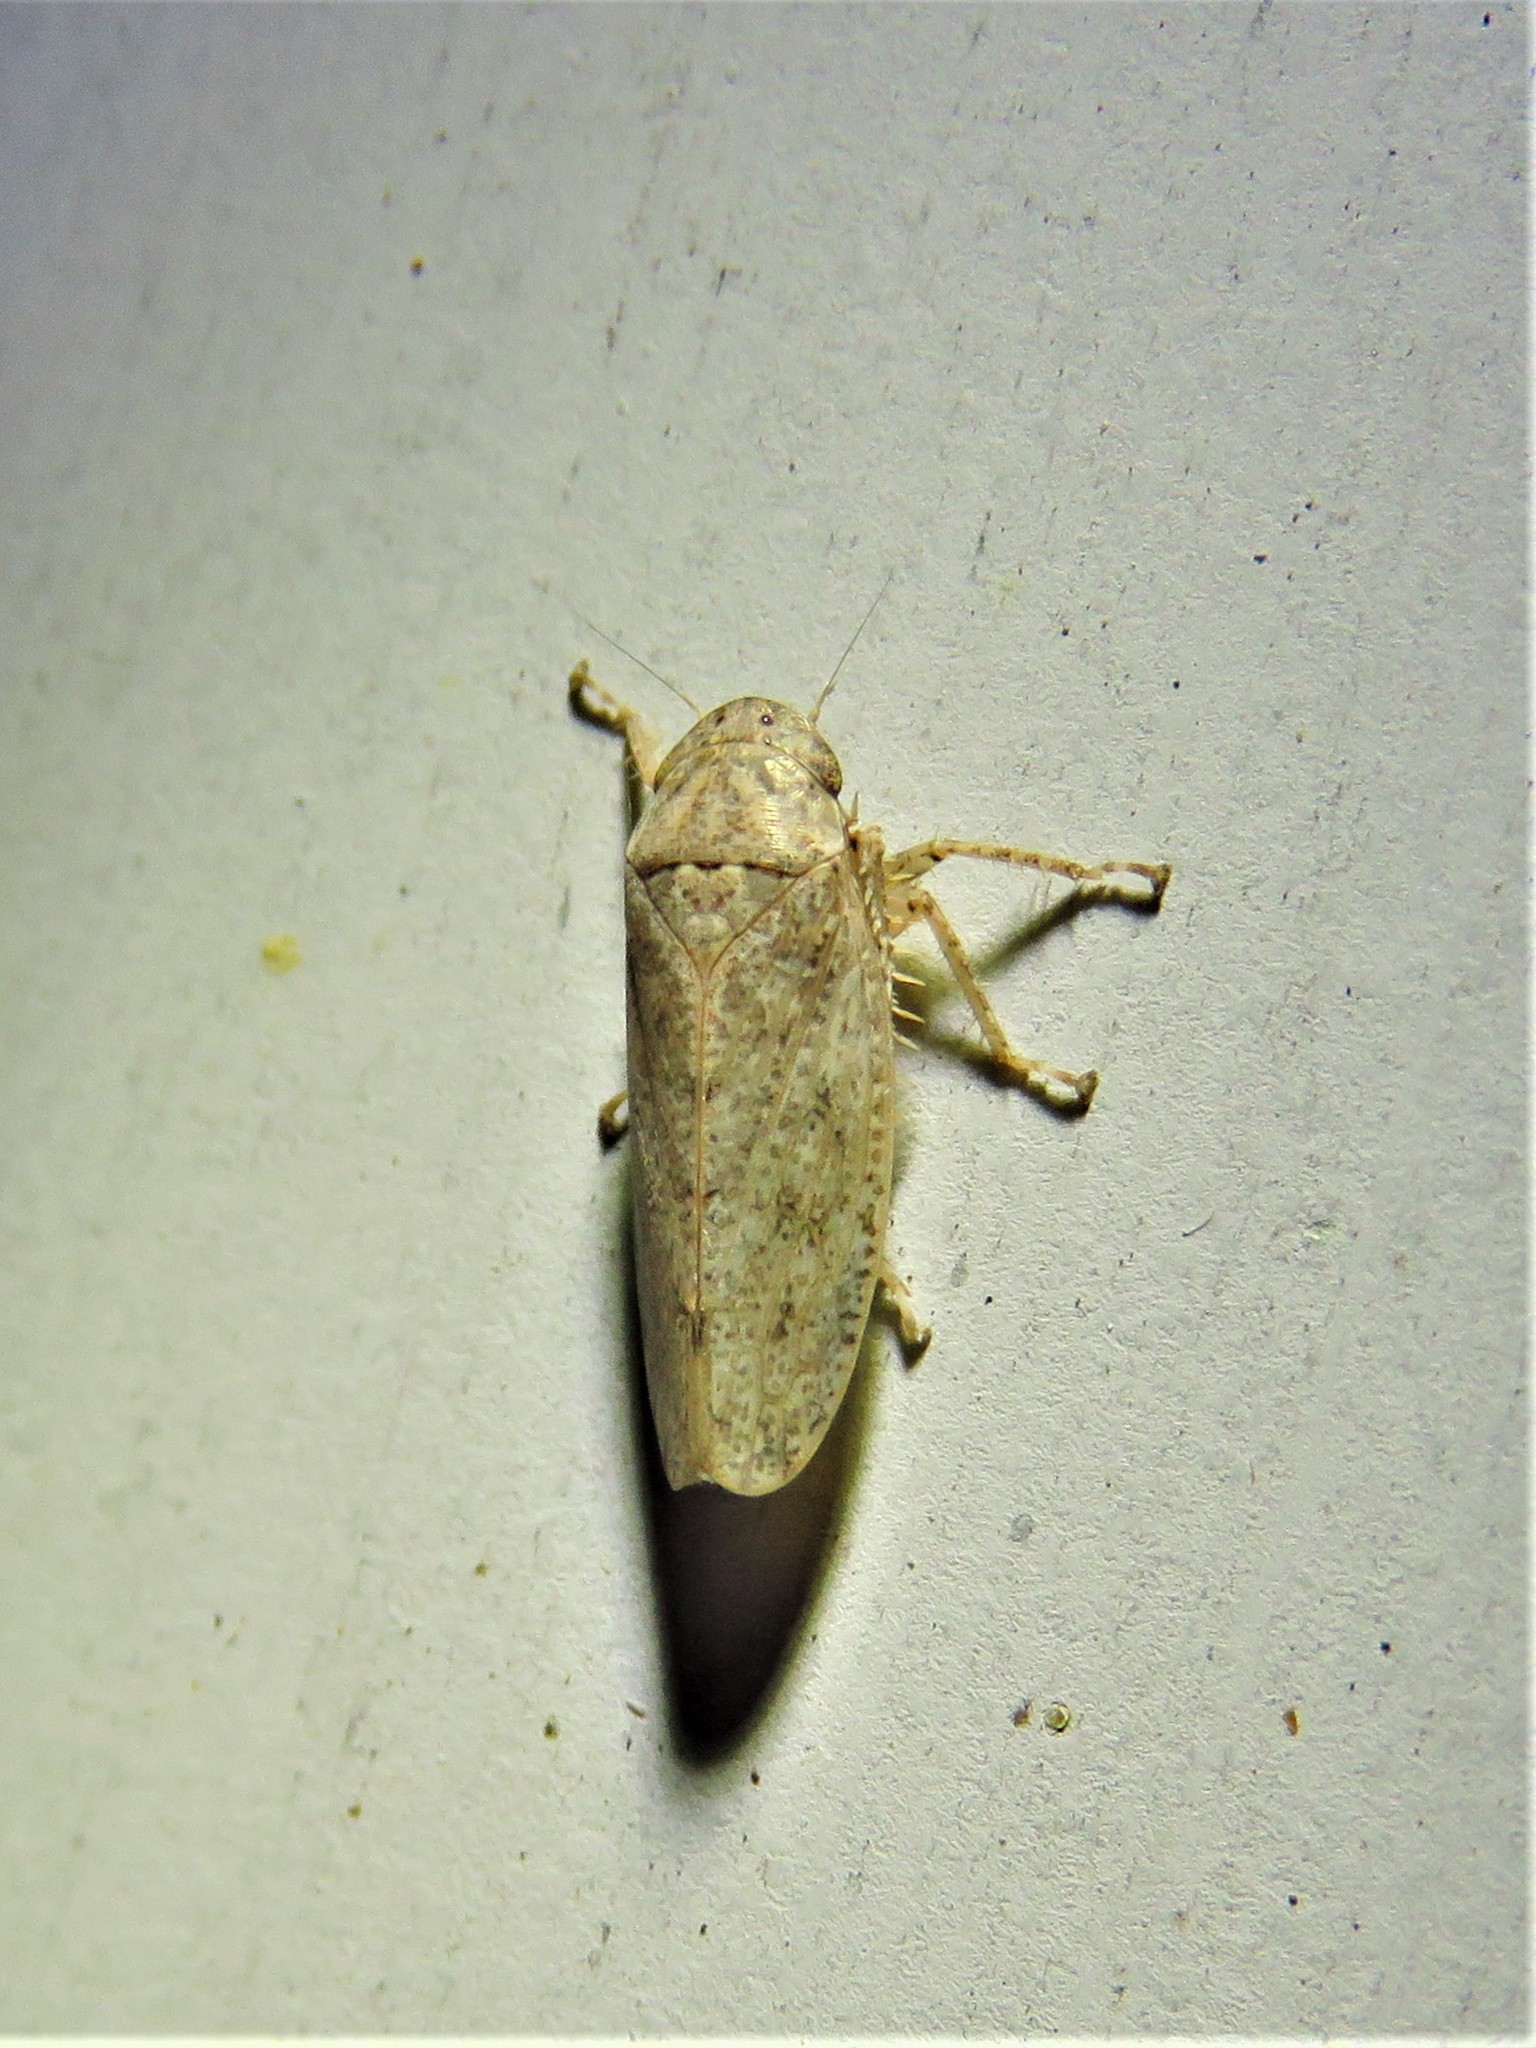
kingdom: Animalia
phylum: Arthropoda
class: Insecta
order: Hemiptera
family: Cicadellidae
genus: Curtara
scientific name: Curtara insularis
